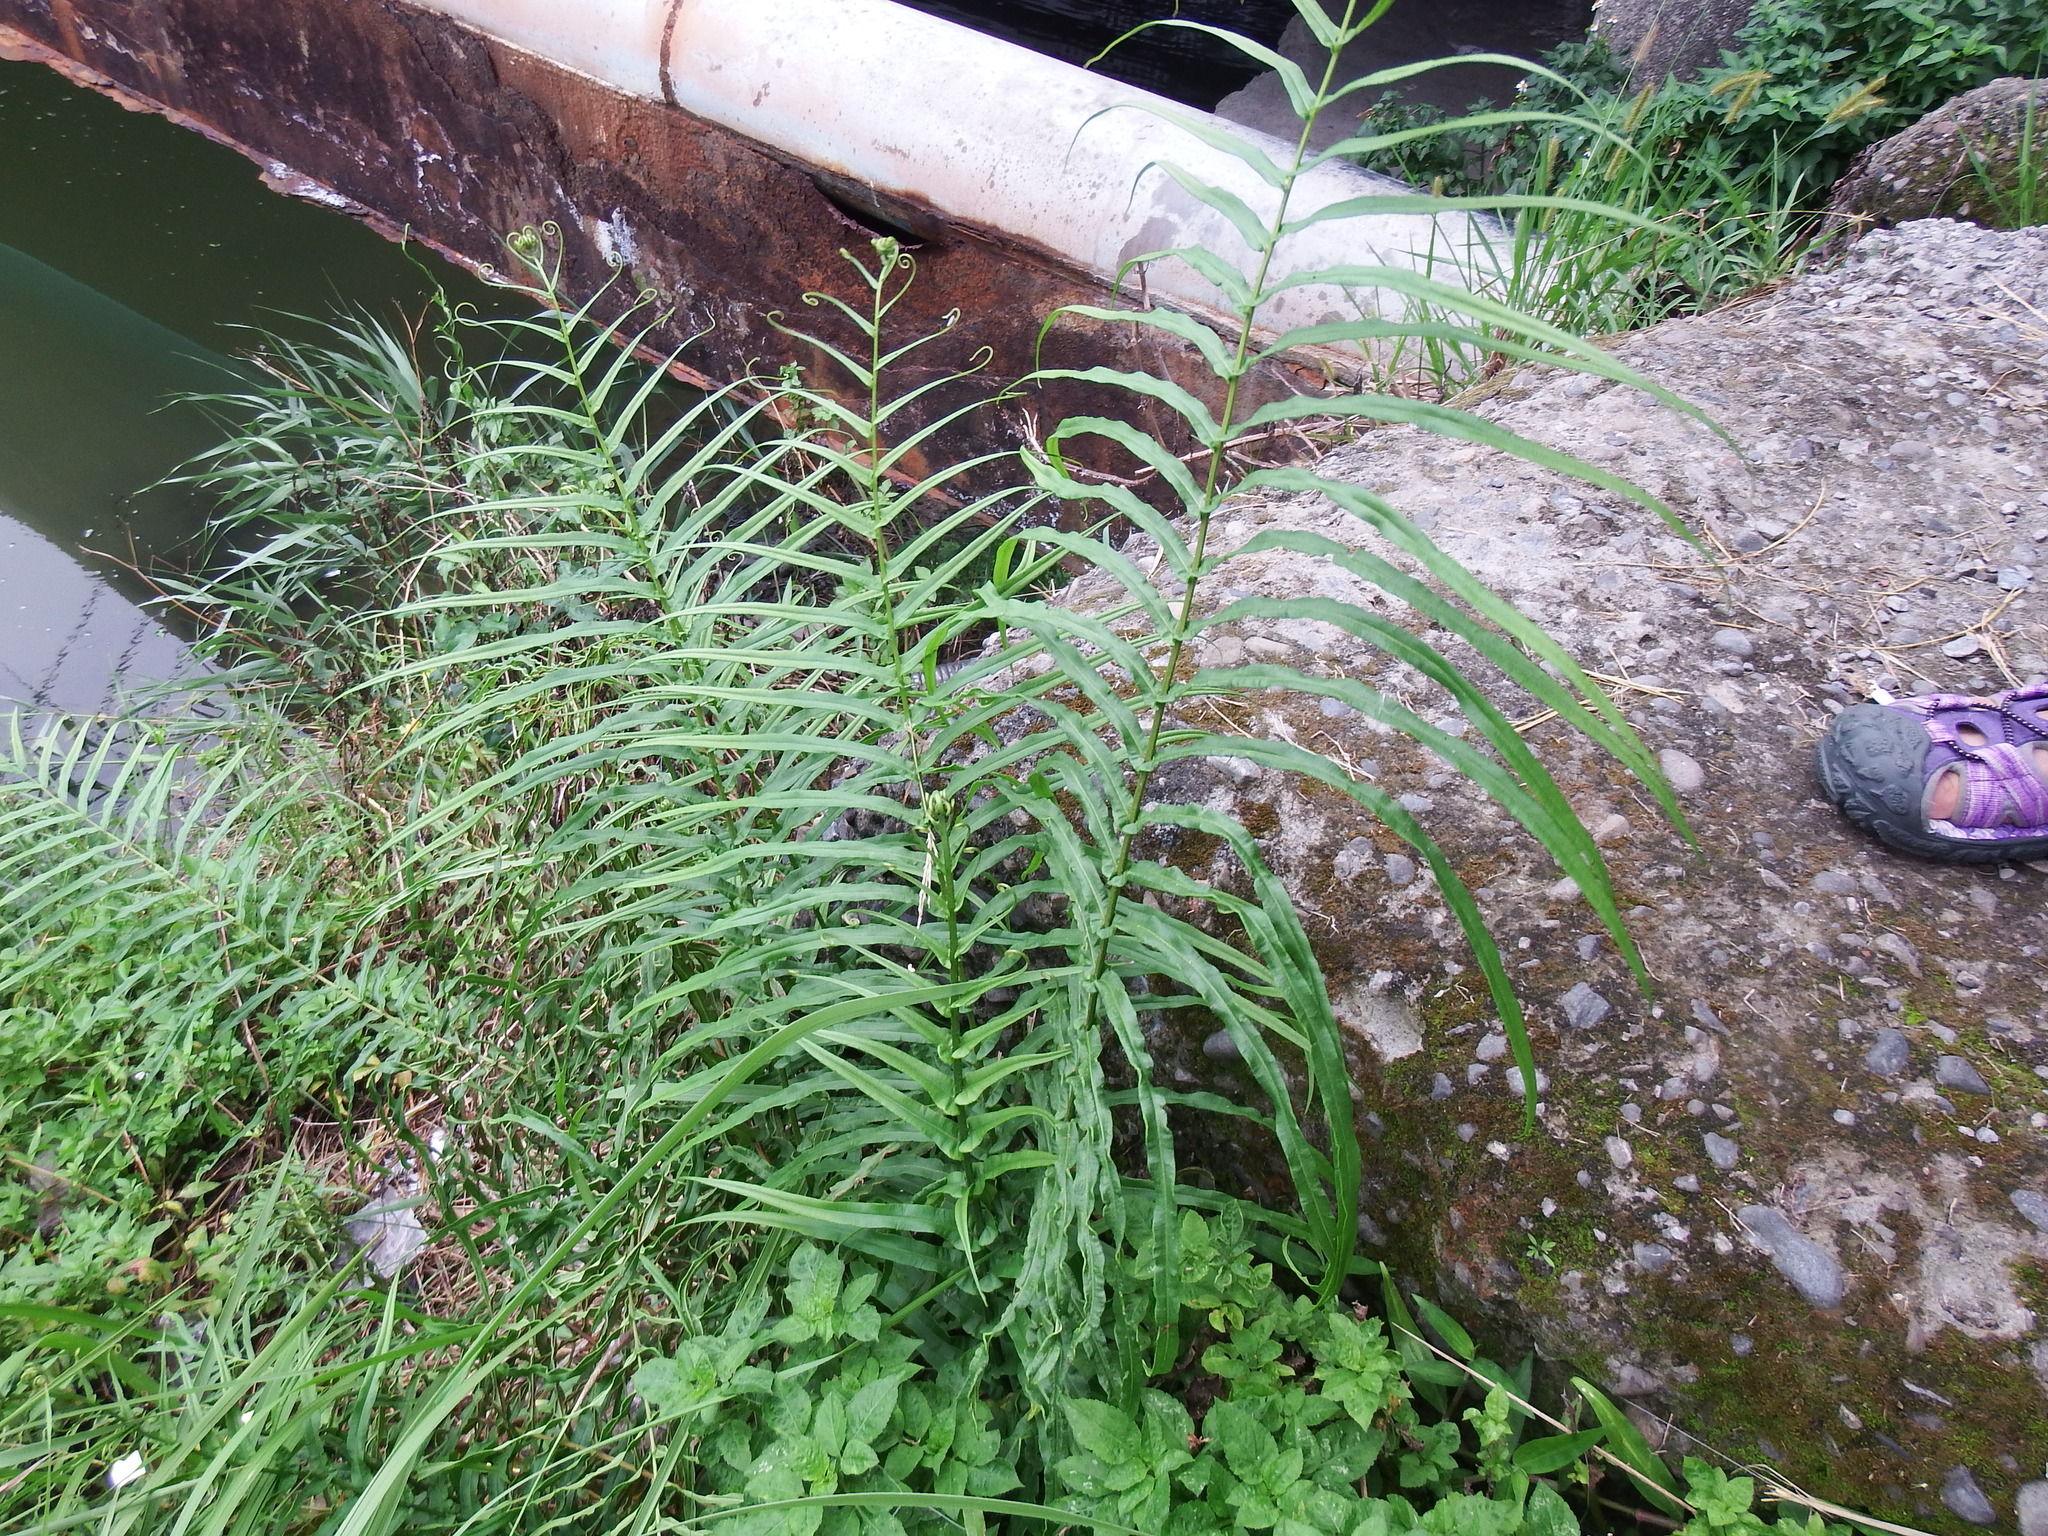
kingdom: Plantae
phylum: Tracheophyta
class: Polypodiopsida
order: Polypodiales
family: Pteridaceae
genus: Pteris
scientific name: Pteris vittata
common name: Ladder brake
